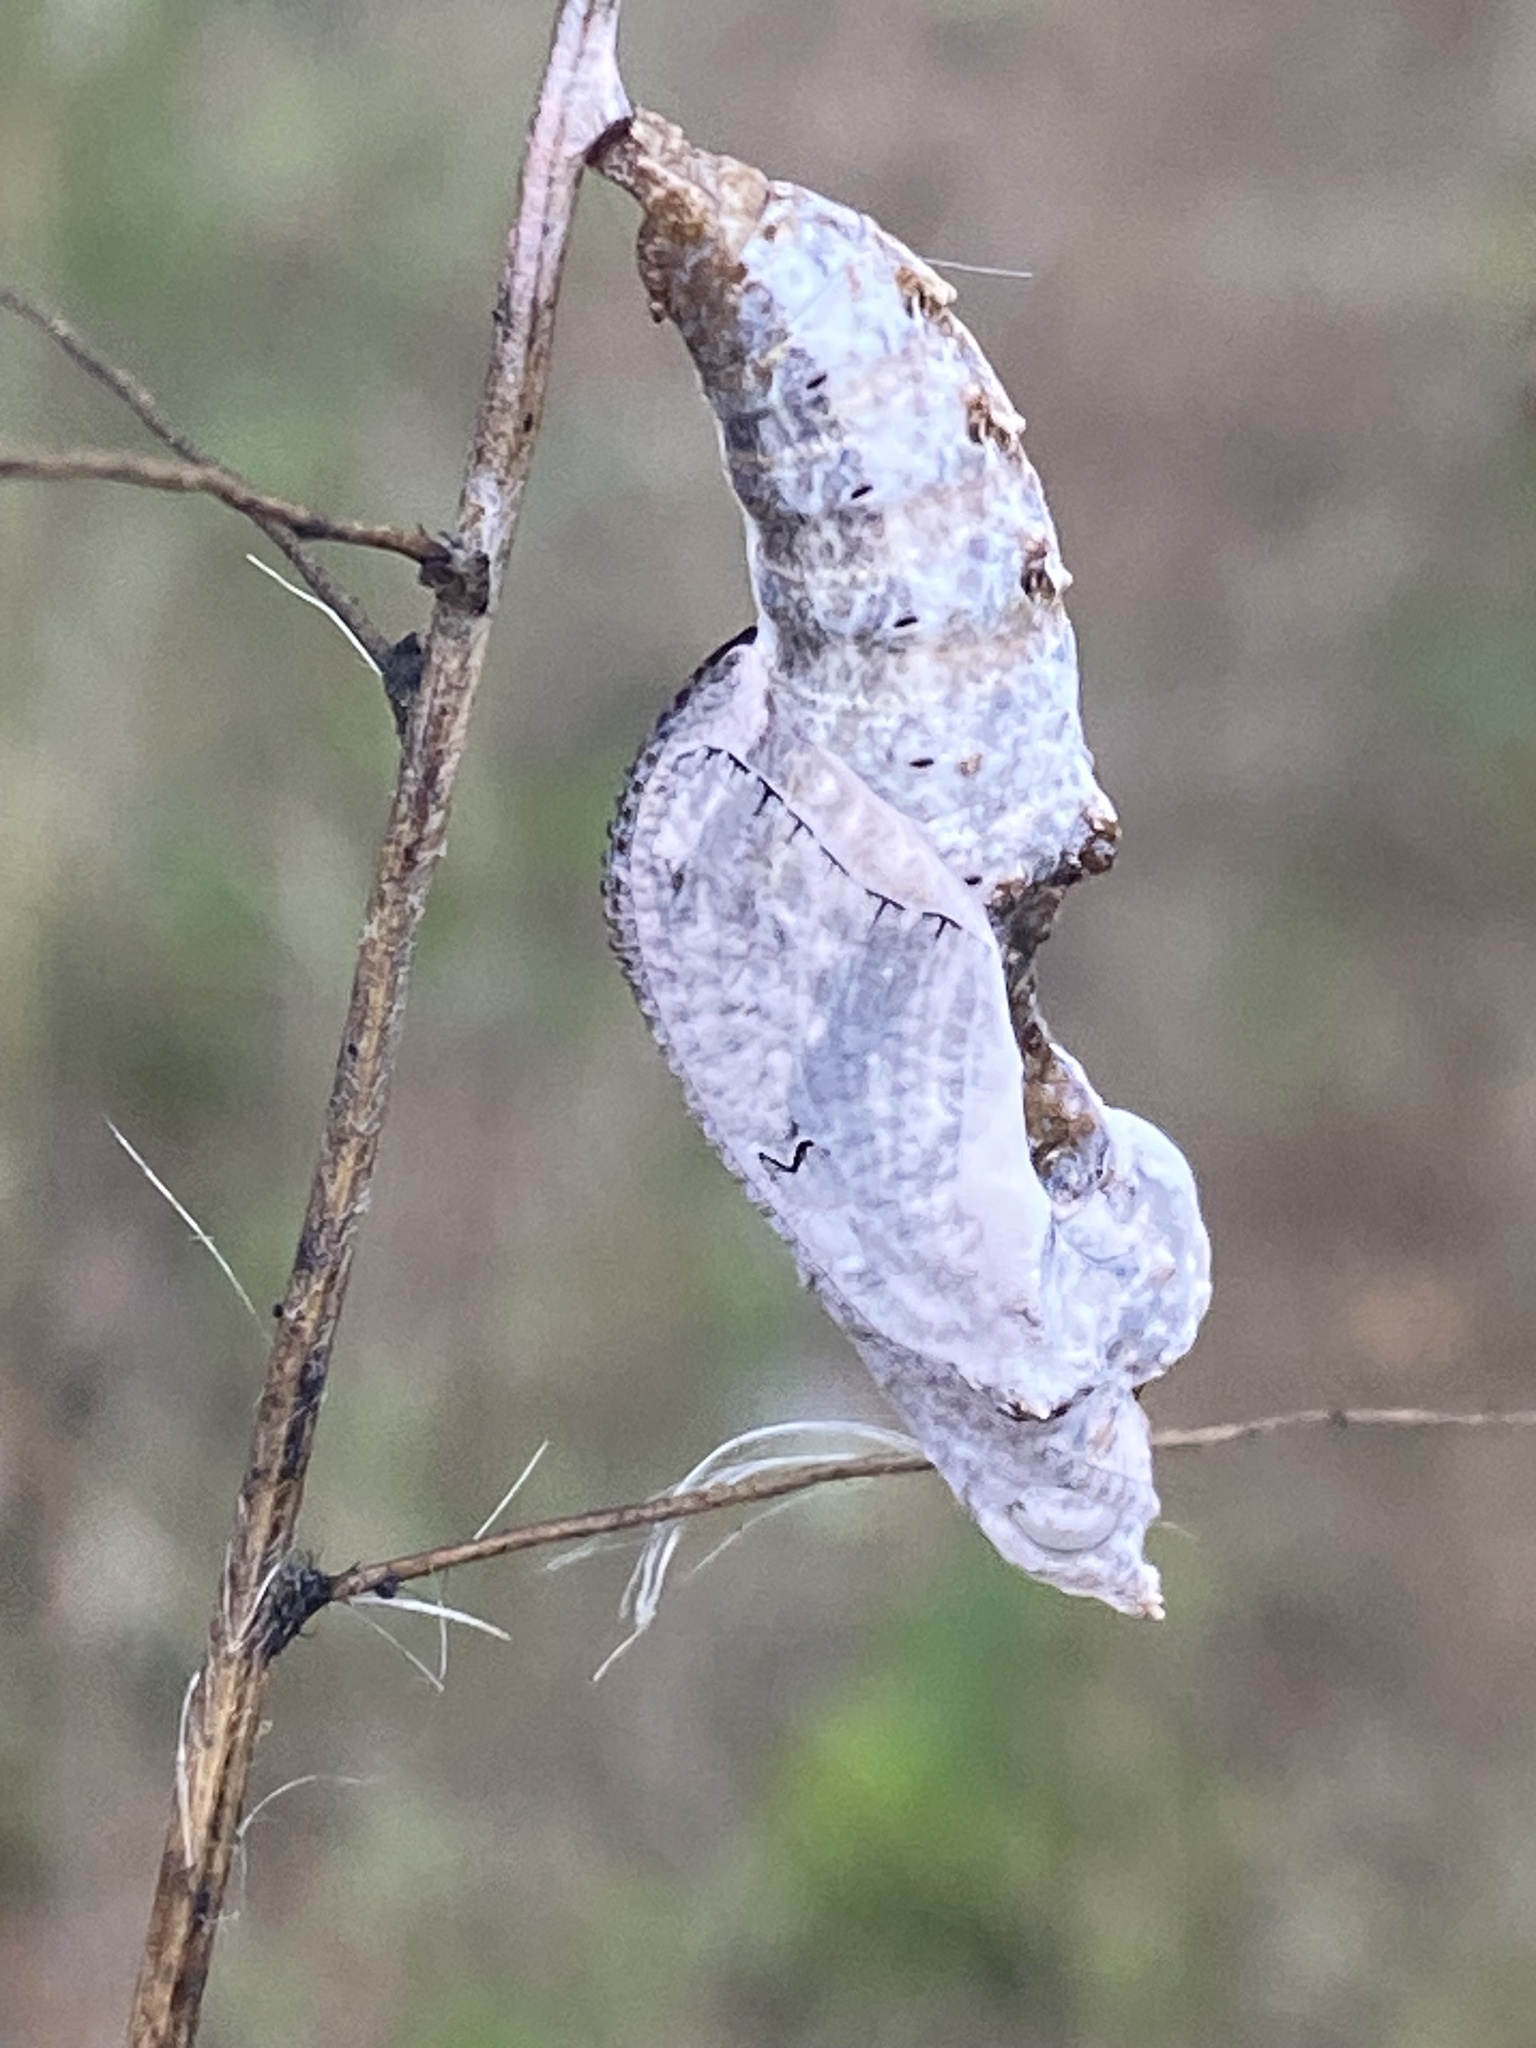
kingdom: Animalia
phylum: Arthropoda
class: Insecta
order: Lepidoptera
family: Nymphalidae
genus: Dione
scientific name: Dione vanillae
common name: Gulf fritillary
